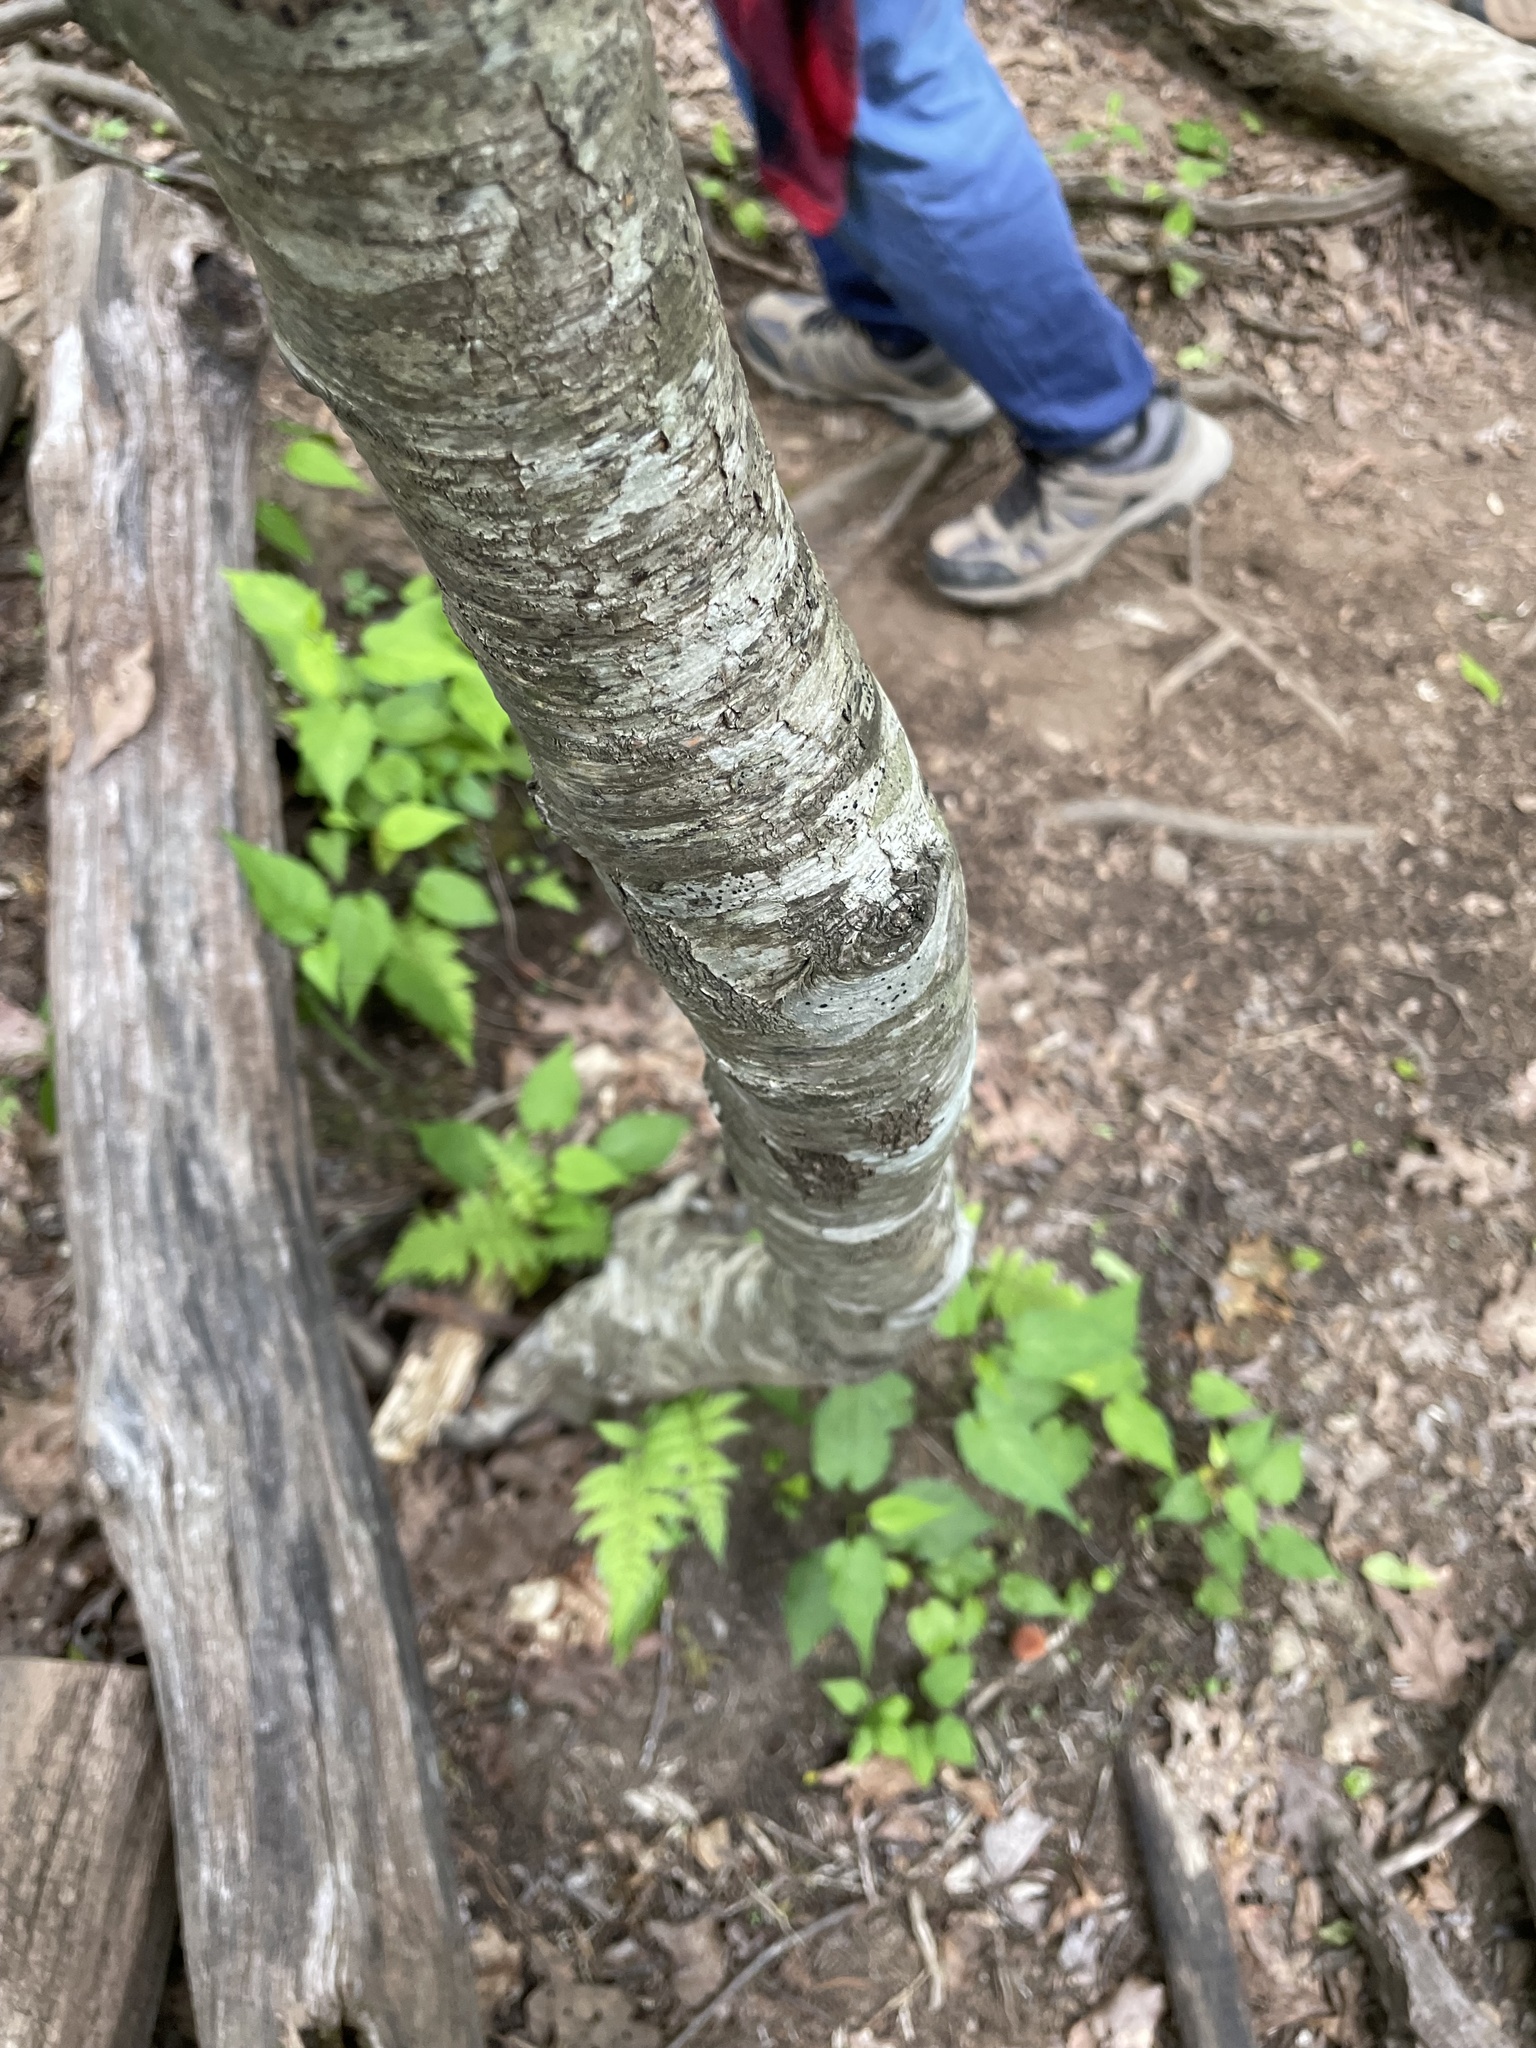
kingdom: Plantae
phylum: Tracheophyta
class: Magnoliopsida
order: Fagales
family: Betulaceae
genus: Betula
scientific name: Betula alleghaniensis
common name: Yellow birch
